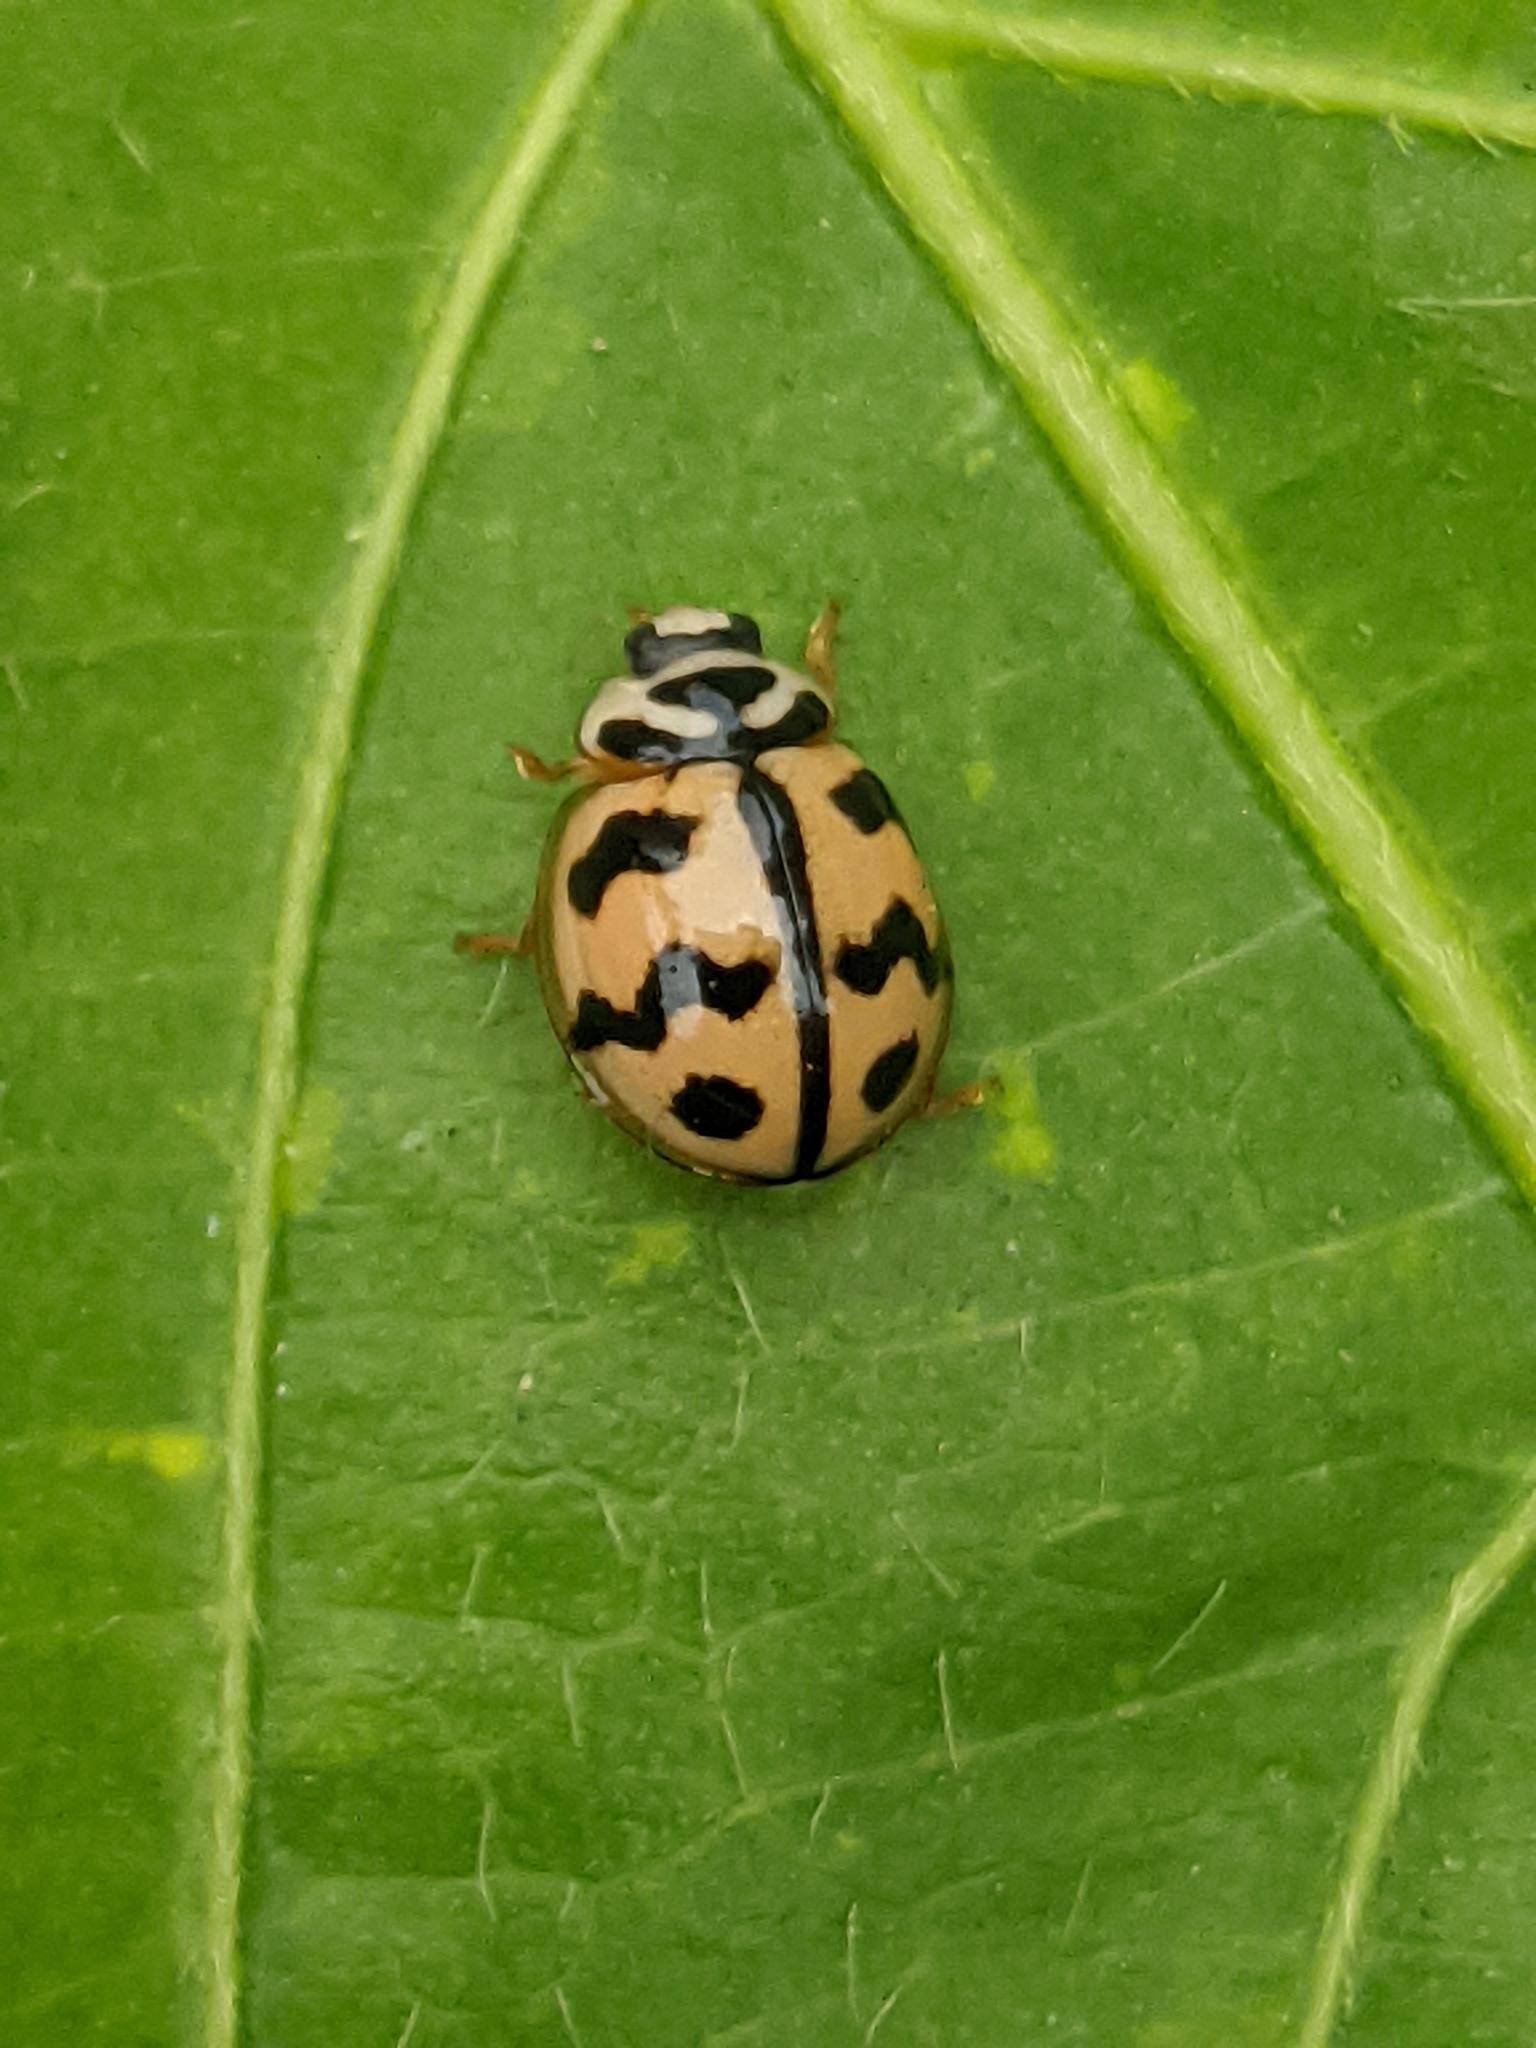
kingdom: Animalia
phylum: Arthropoda
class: Insecta
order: Coleoptera
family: Coccinellidae
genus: Cheilomenes
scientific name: Cheilomenes sexmaculata
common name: Ladybird beetle
